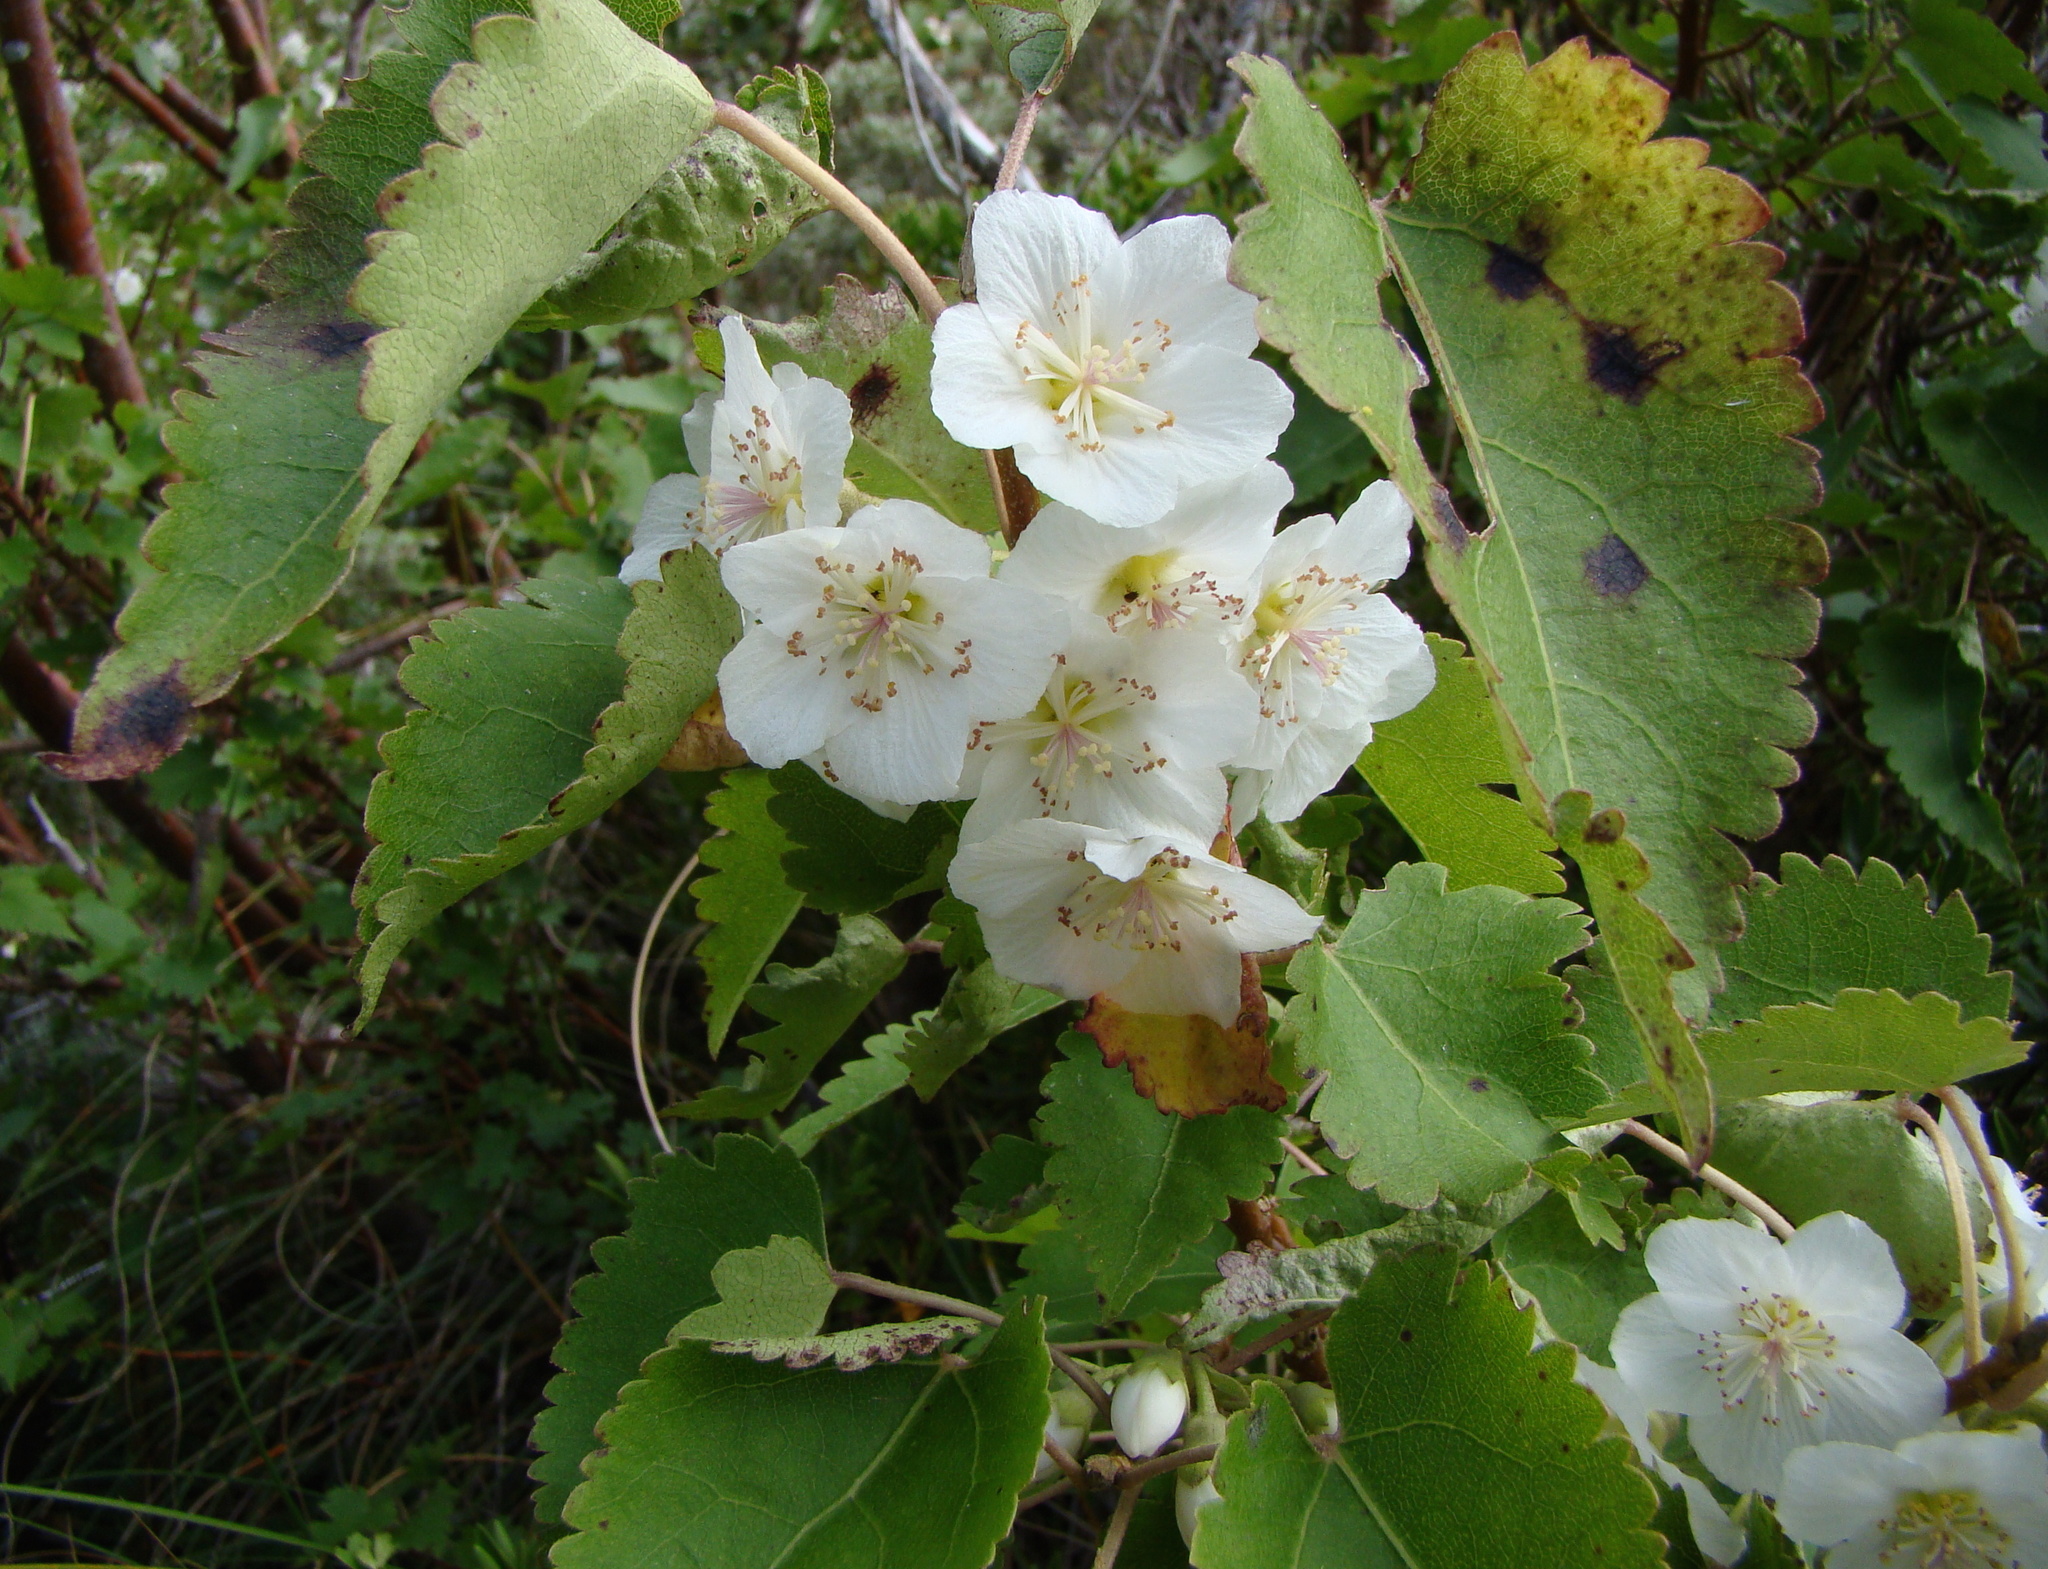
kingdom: Plantae
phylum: Tracheophyta
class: Magnoliopsida
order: Malvales
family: Malvaceae
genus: Hoheria
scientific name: Hoheria glabrata
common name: Mountain-ribbon
